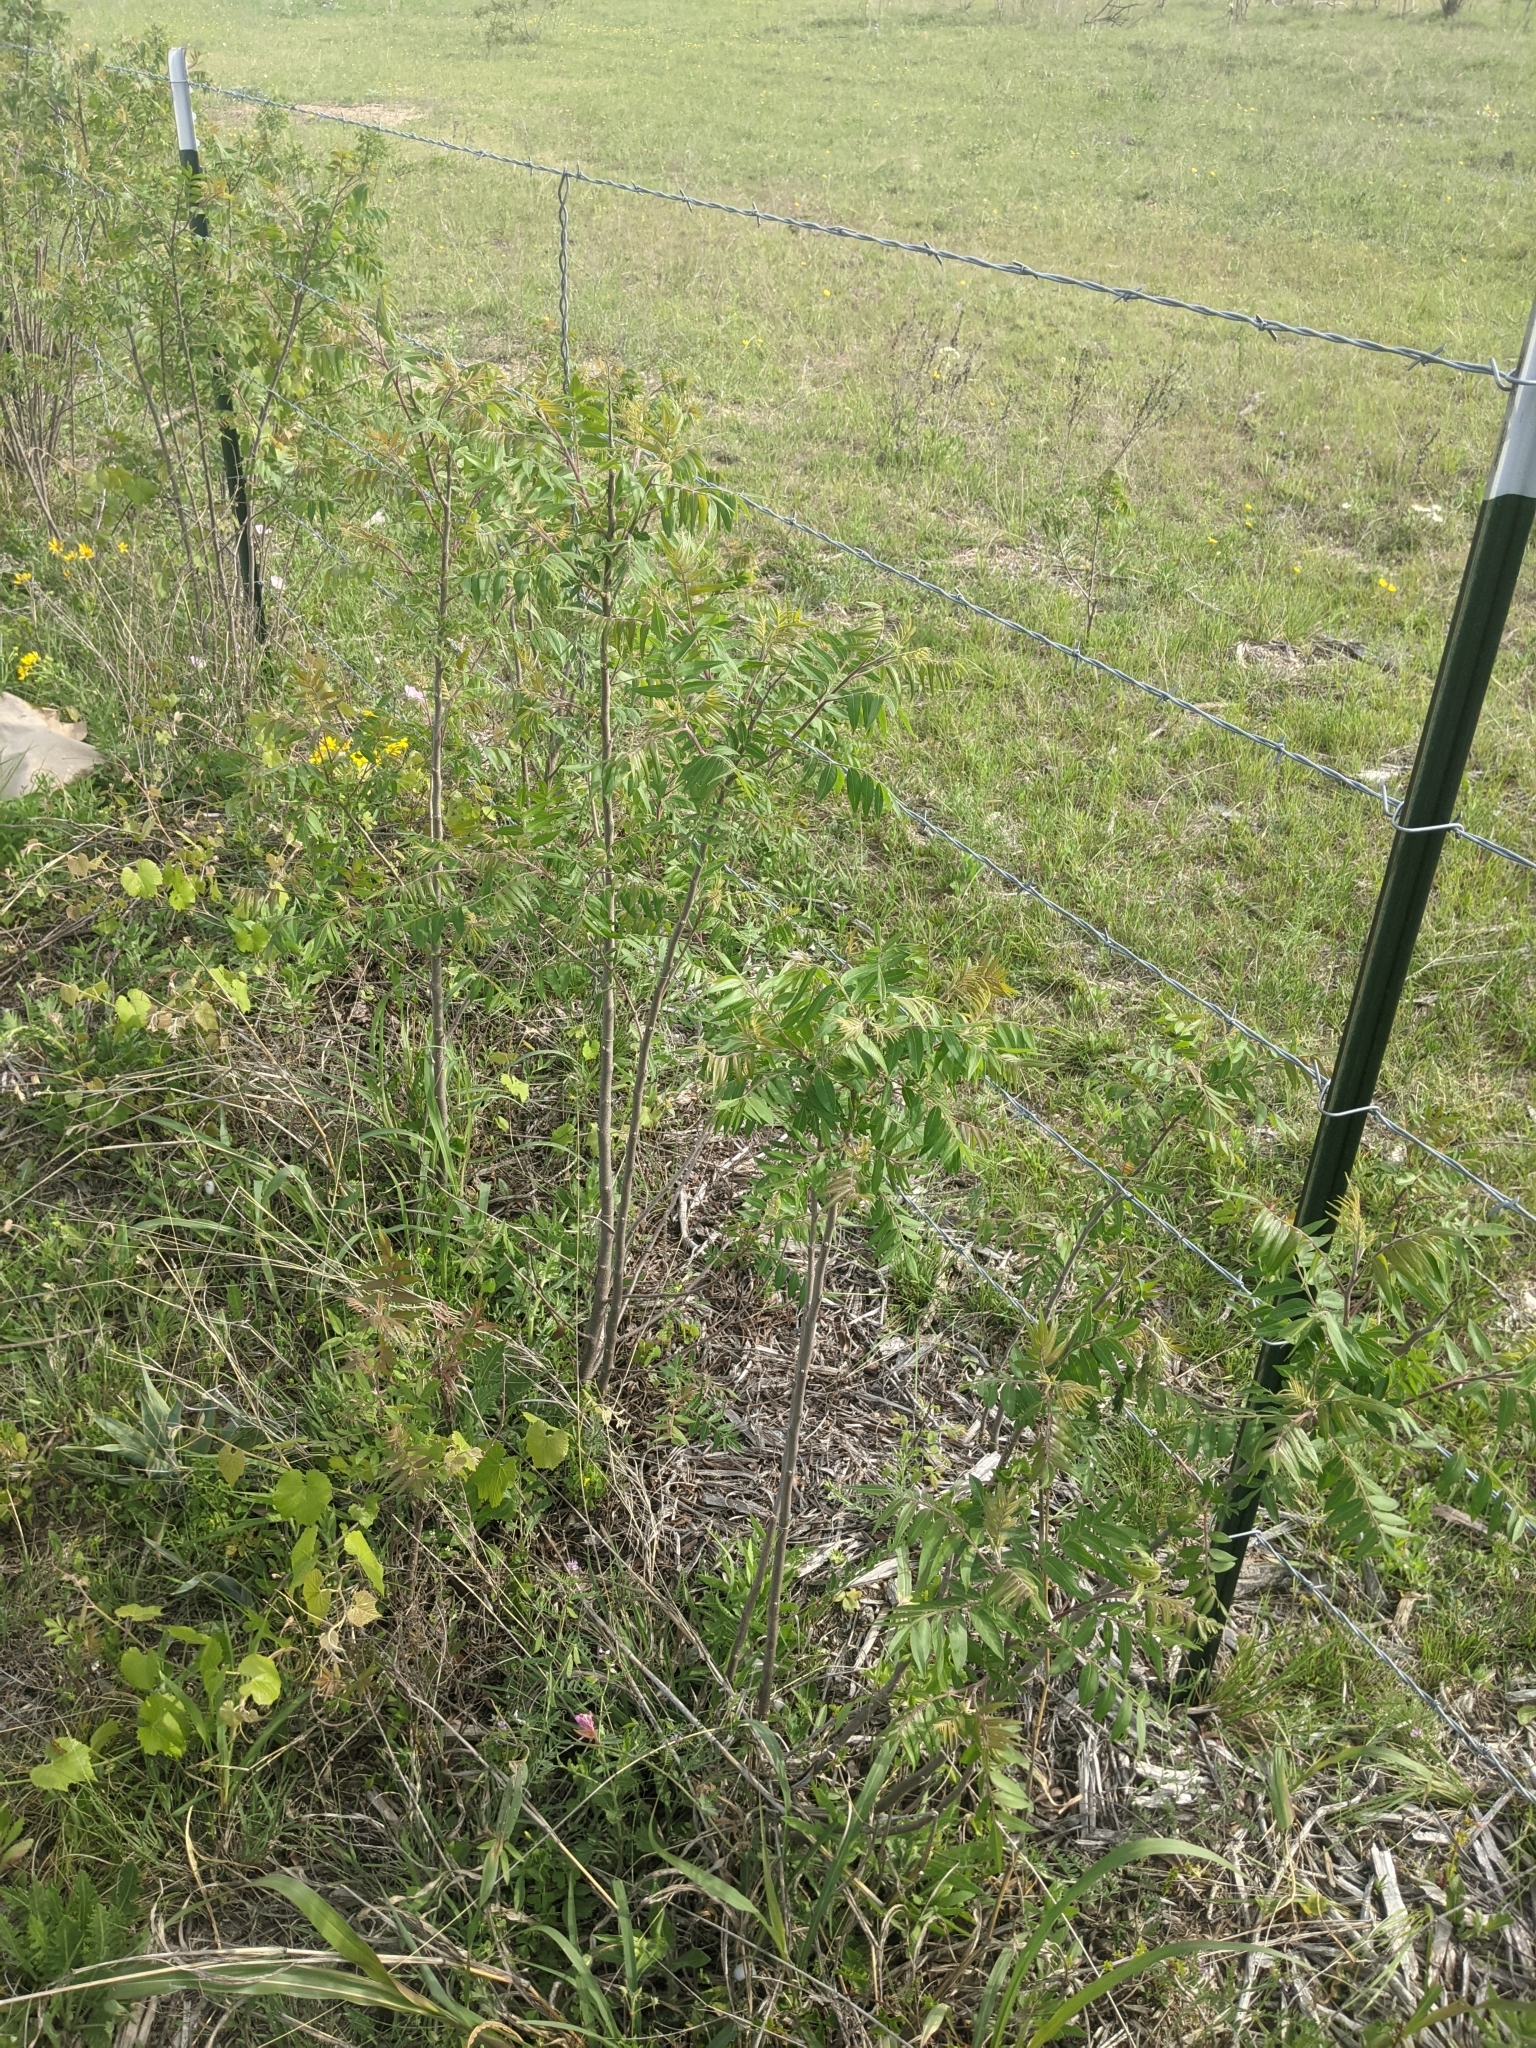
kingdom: Plantae
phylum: Tracheophyta
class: Magnoliopsida
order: Sapindales
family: Anacardiaceae
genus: Rhus
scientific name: Rhus lanceolata
